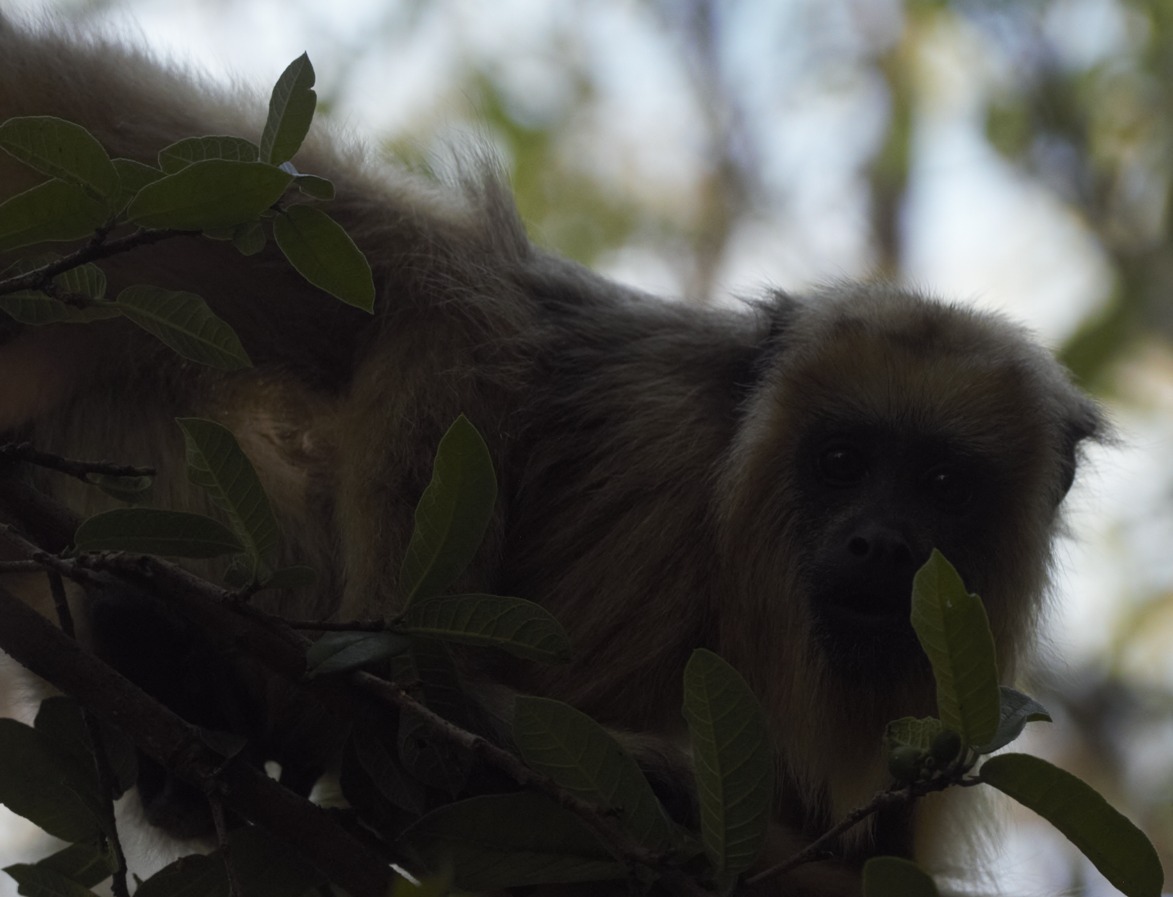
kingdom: Animalia
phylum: Chordata
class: Mammalia
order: Primates
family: Atelidae
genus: Alouatta
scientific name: Alouatta caraya
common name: Black howler
